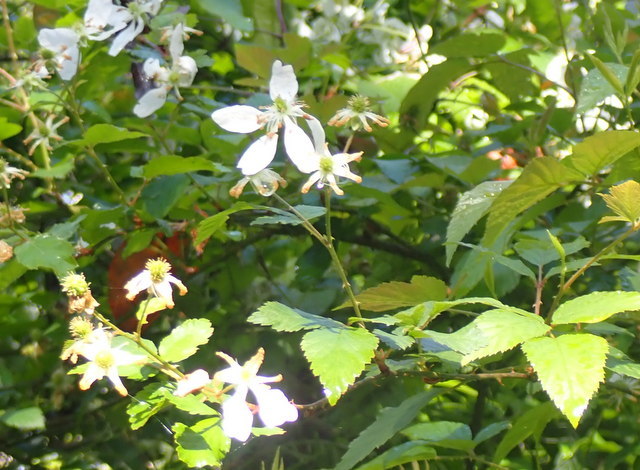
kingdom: Plantae
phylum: Tracheophyta
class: Magnoliopsida
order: Rosales
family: Rosaceae
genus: Rubus
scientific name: Rubus pensilvanicus
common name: Pennsylvania blackberry
